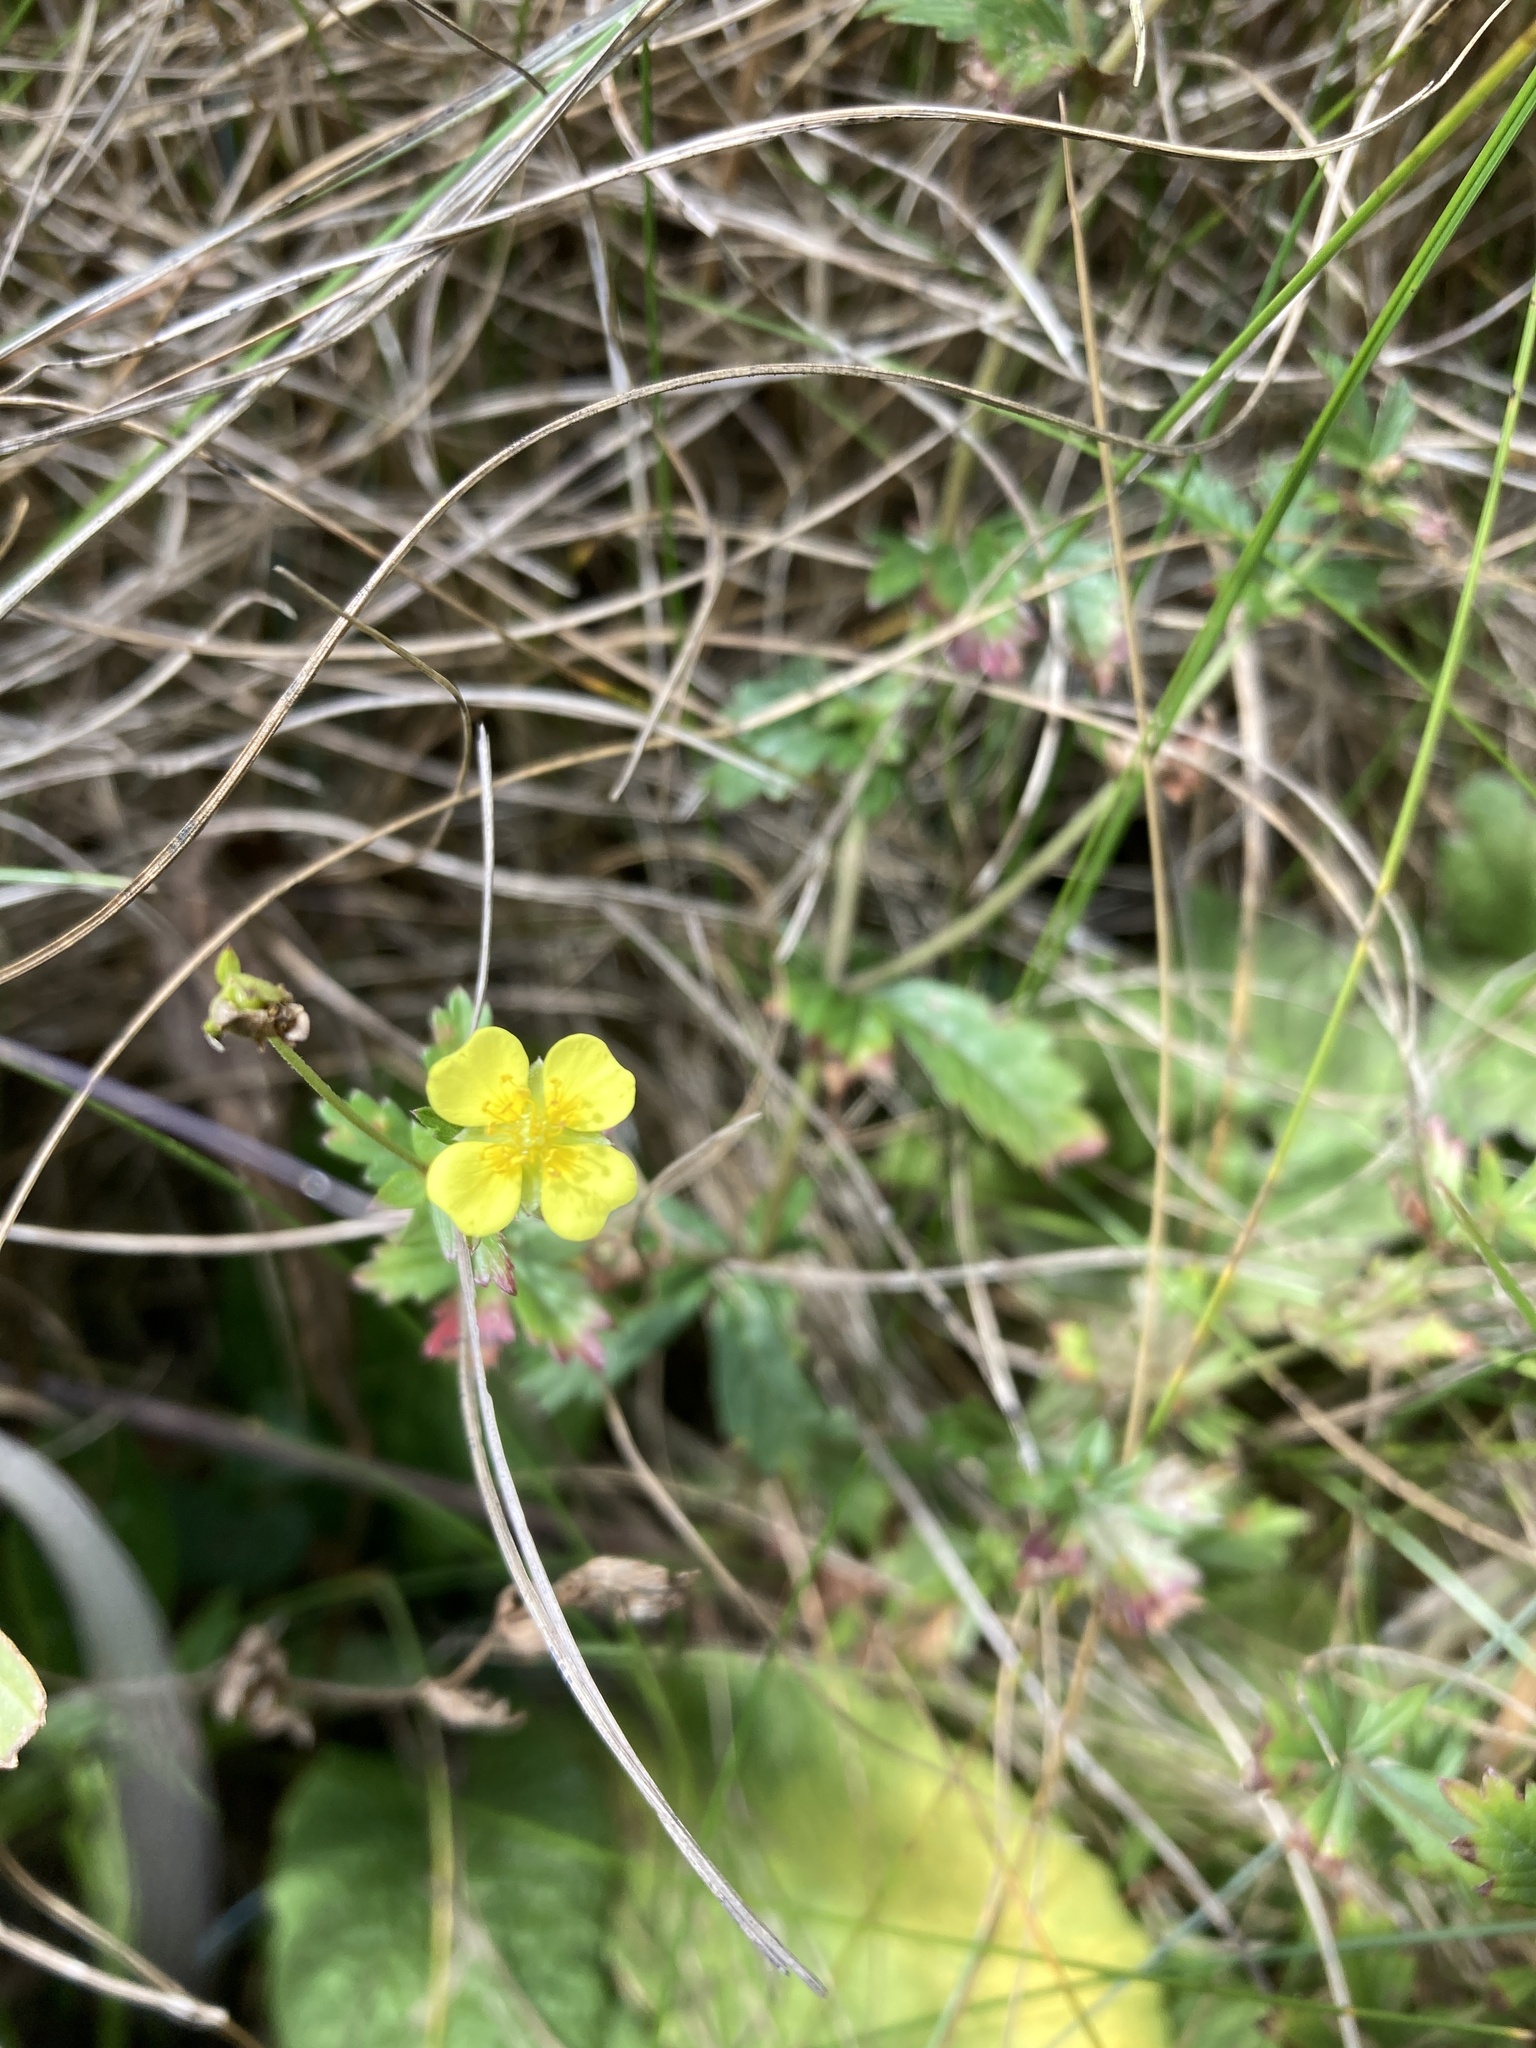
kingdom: Plantae
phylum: Tracheophyta
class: Magnoliopsida
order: Rosales
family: Rosaceae
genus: Potentilla
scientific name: Potentilla erecta
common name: Tormentil
